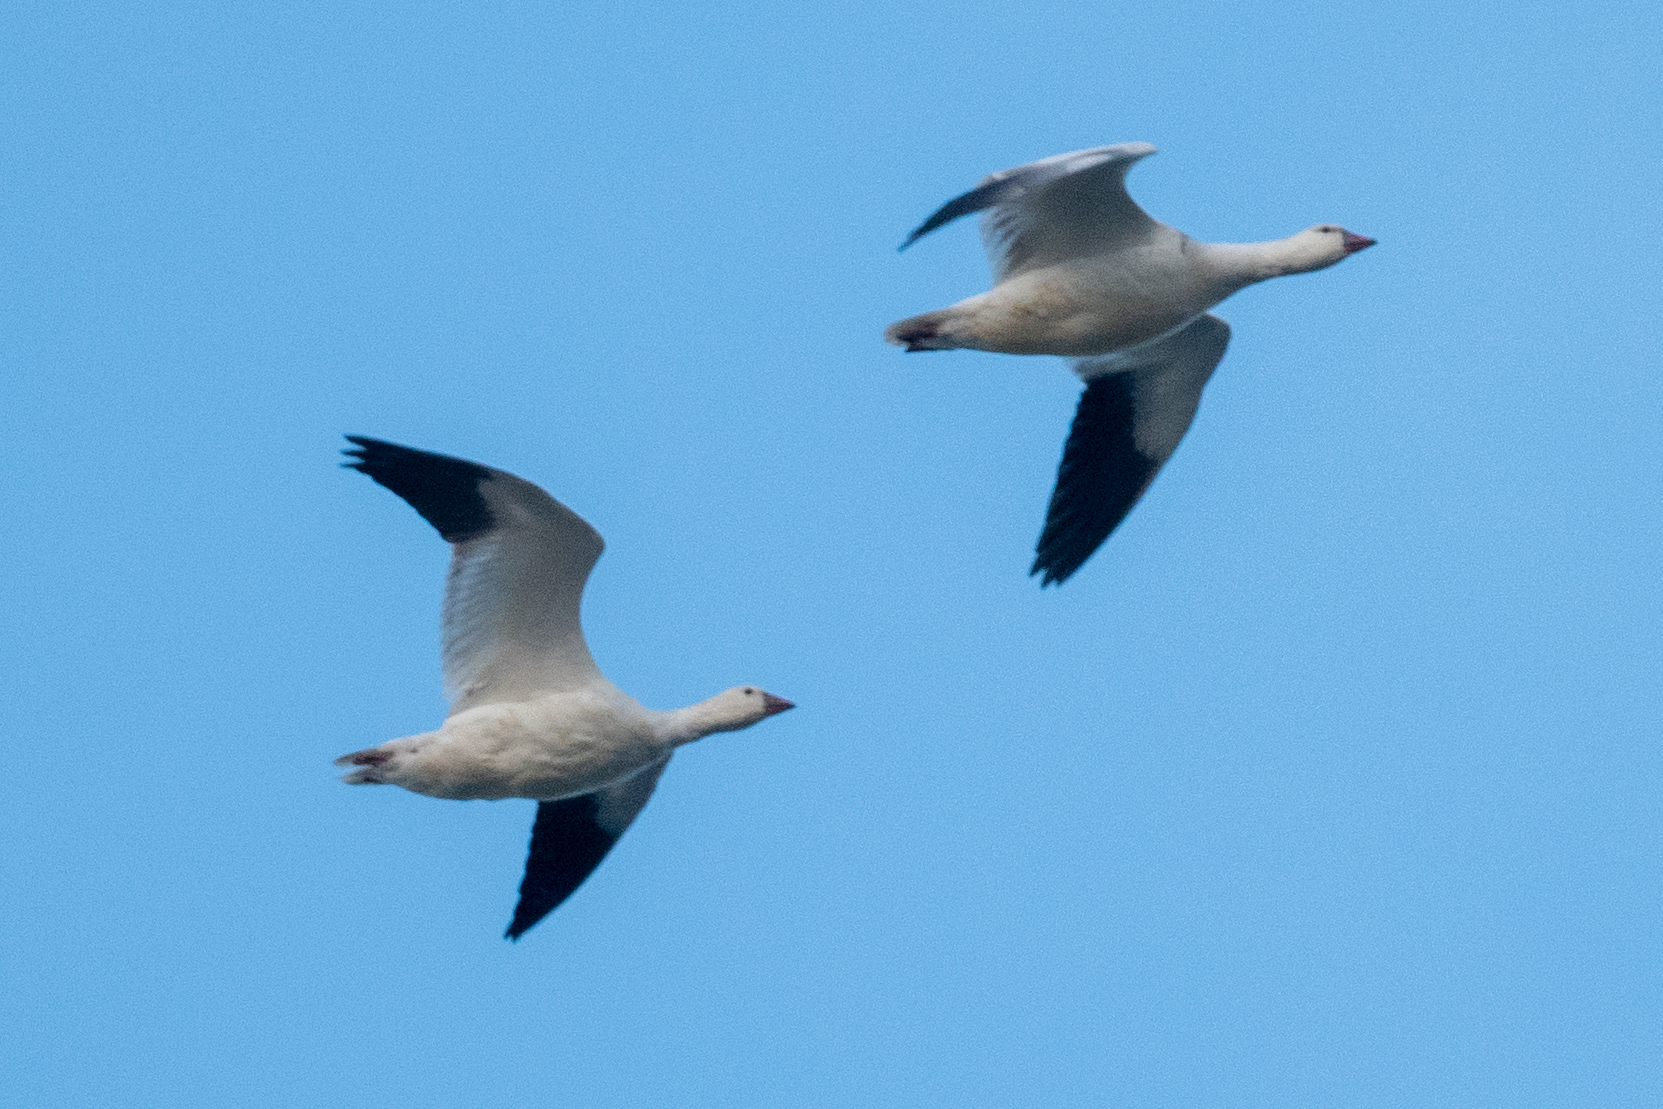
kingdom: Animalia
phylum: Chordata
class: Aves
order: Anseriformes
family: Anatidae
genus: Anser
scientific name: Anser rossii
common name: Ross's goose
